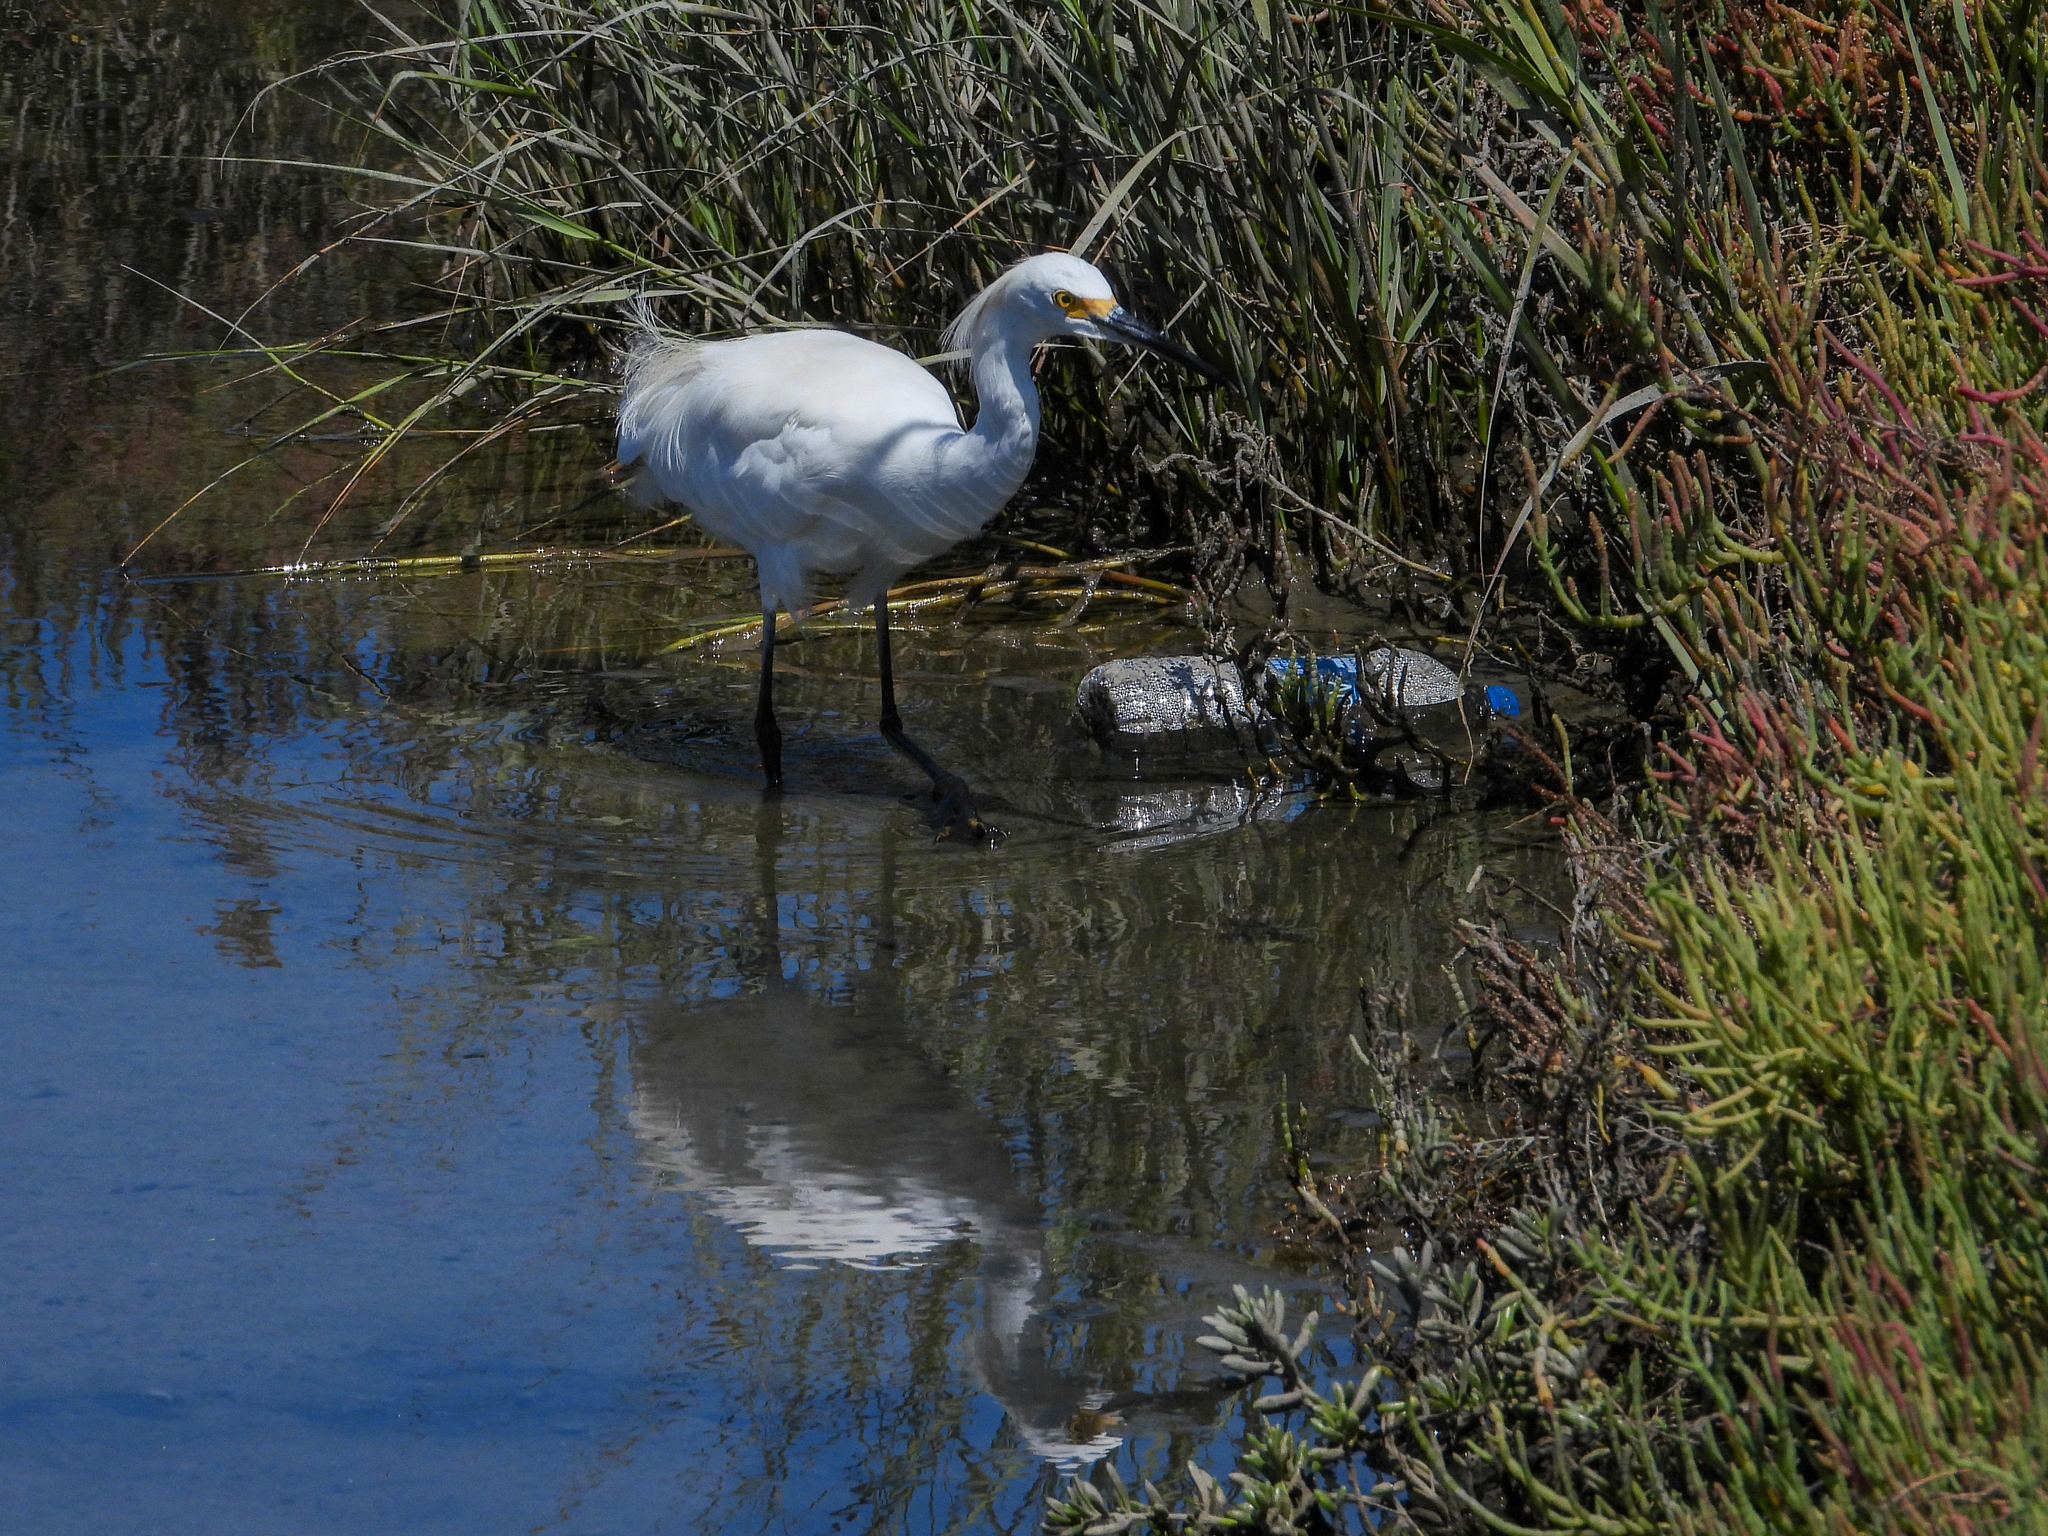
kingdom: Animalia
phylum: Chordata
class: Aves
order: Pelecaniformes
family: Ardeidae
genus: Egretta
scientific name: Egretta thula
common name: Snowy egret
